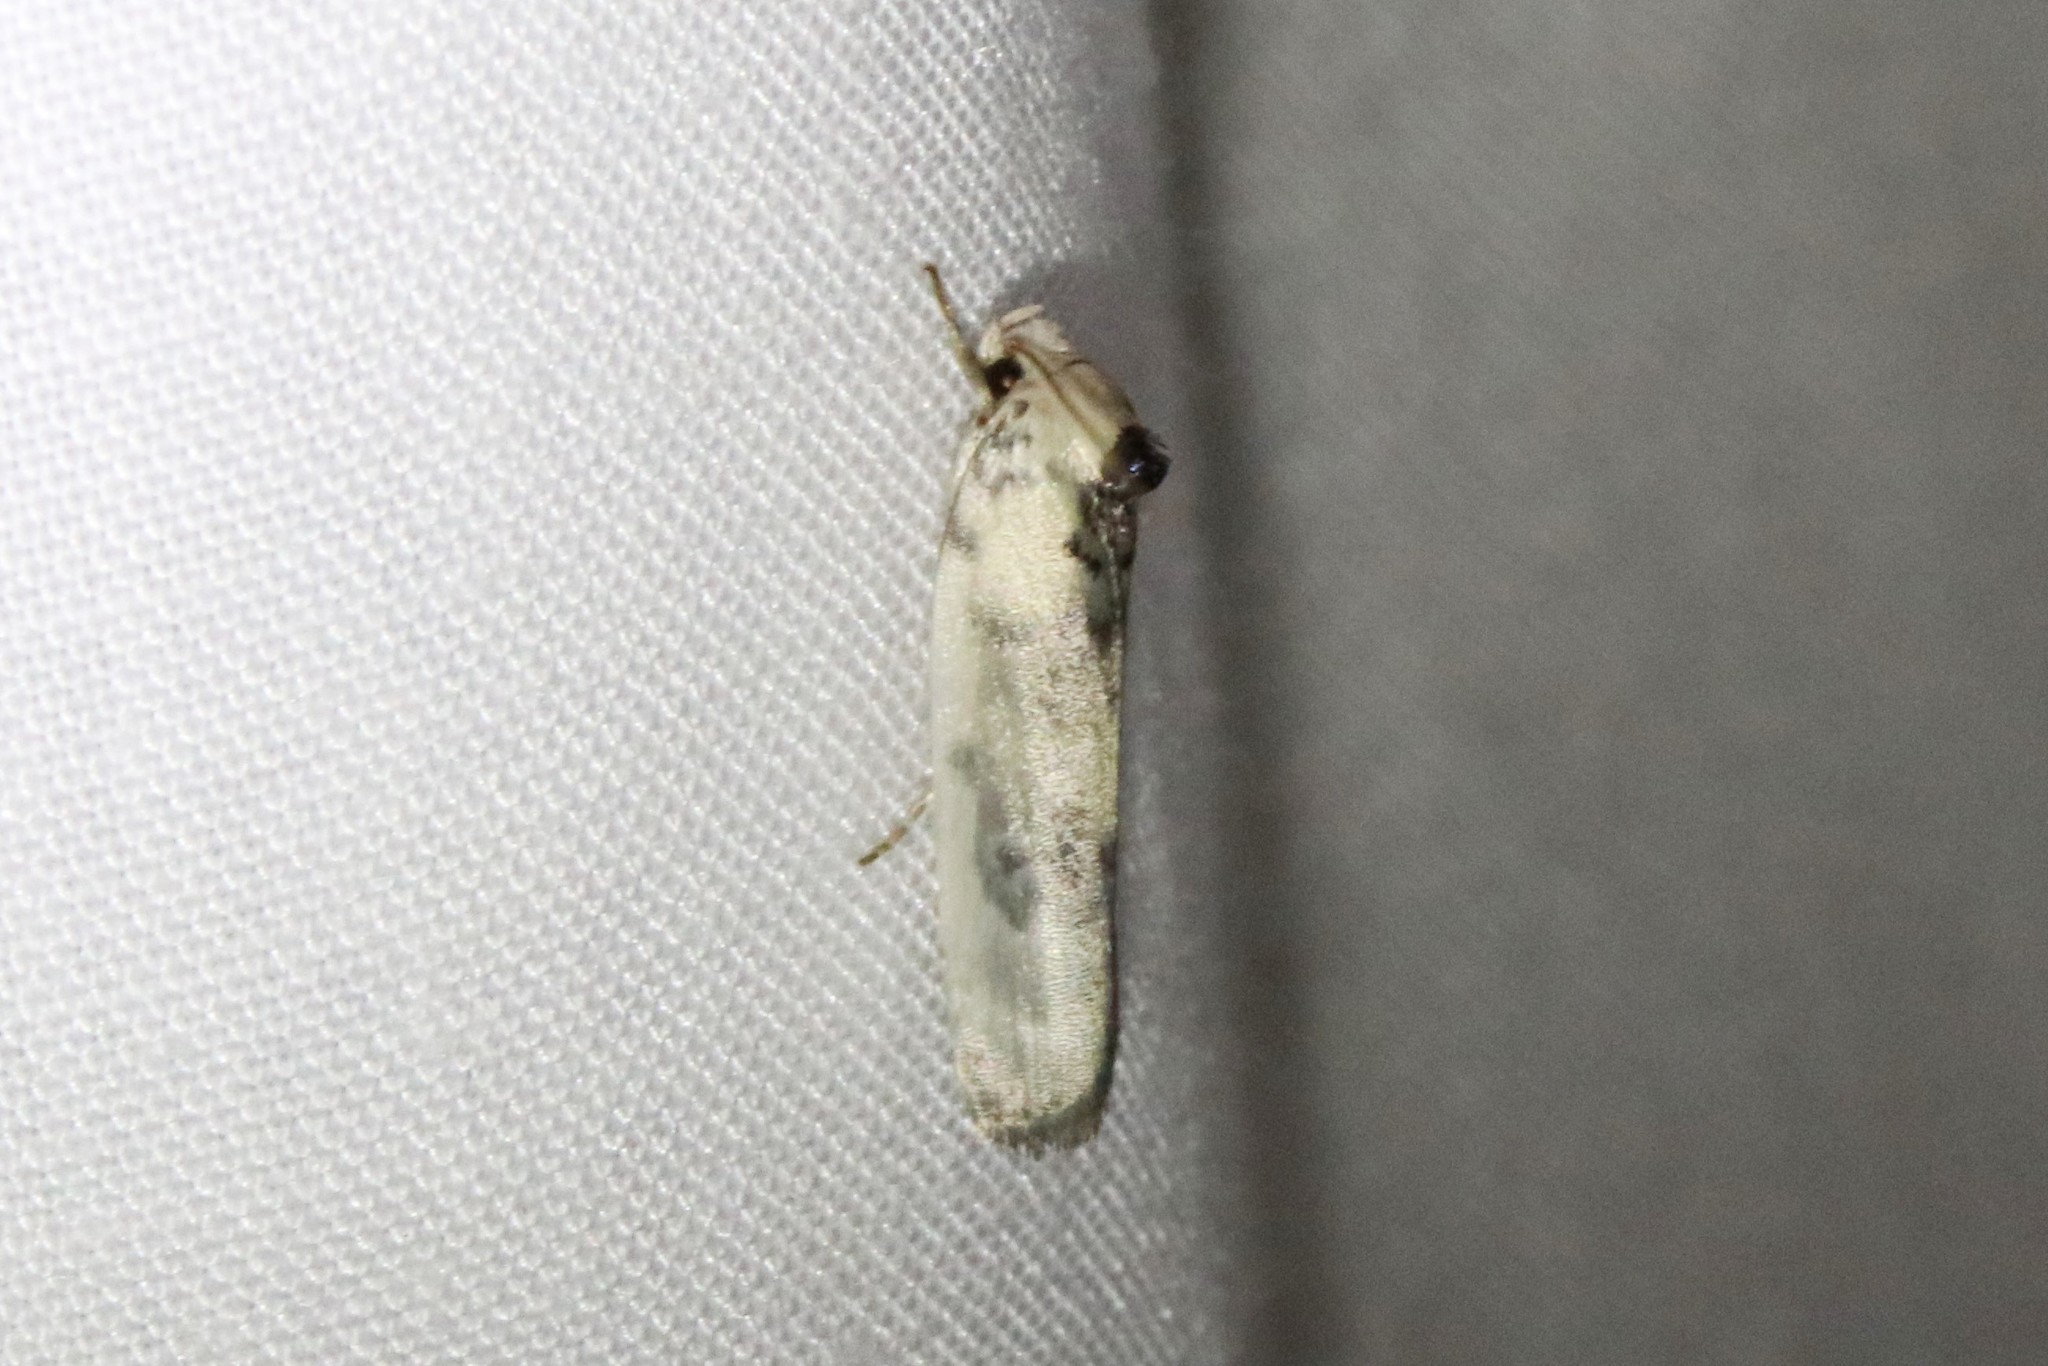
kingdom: Animalia
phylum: Arthropoda
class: Insecta
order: Lepidoptera
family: Depressariidae
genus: Antaeotricha
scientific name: Antaeotricha schlaegeri
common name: Schlaeger's fruitworm moth
